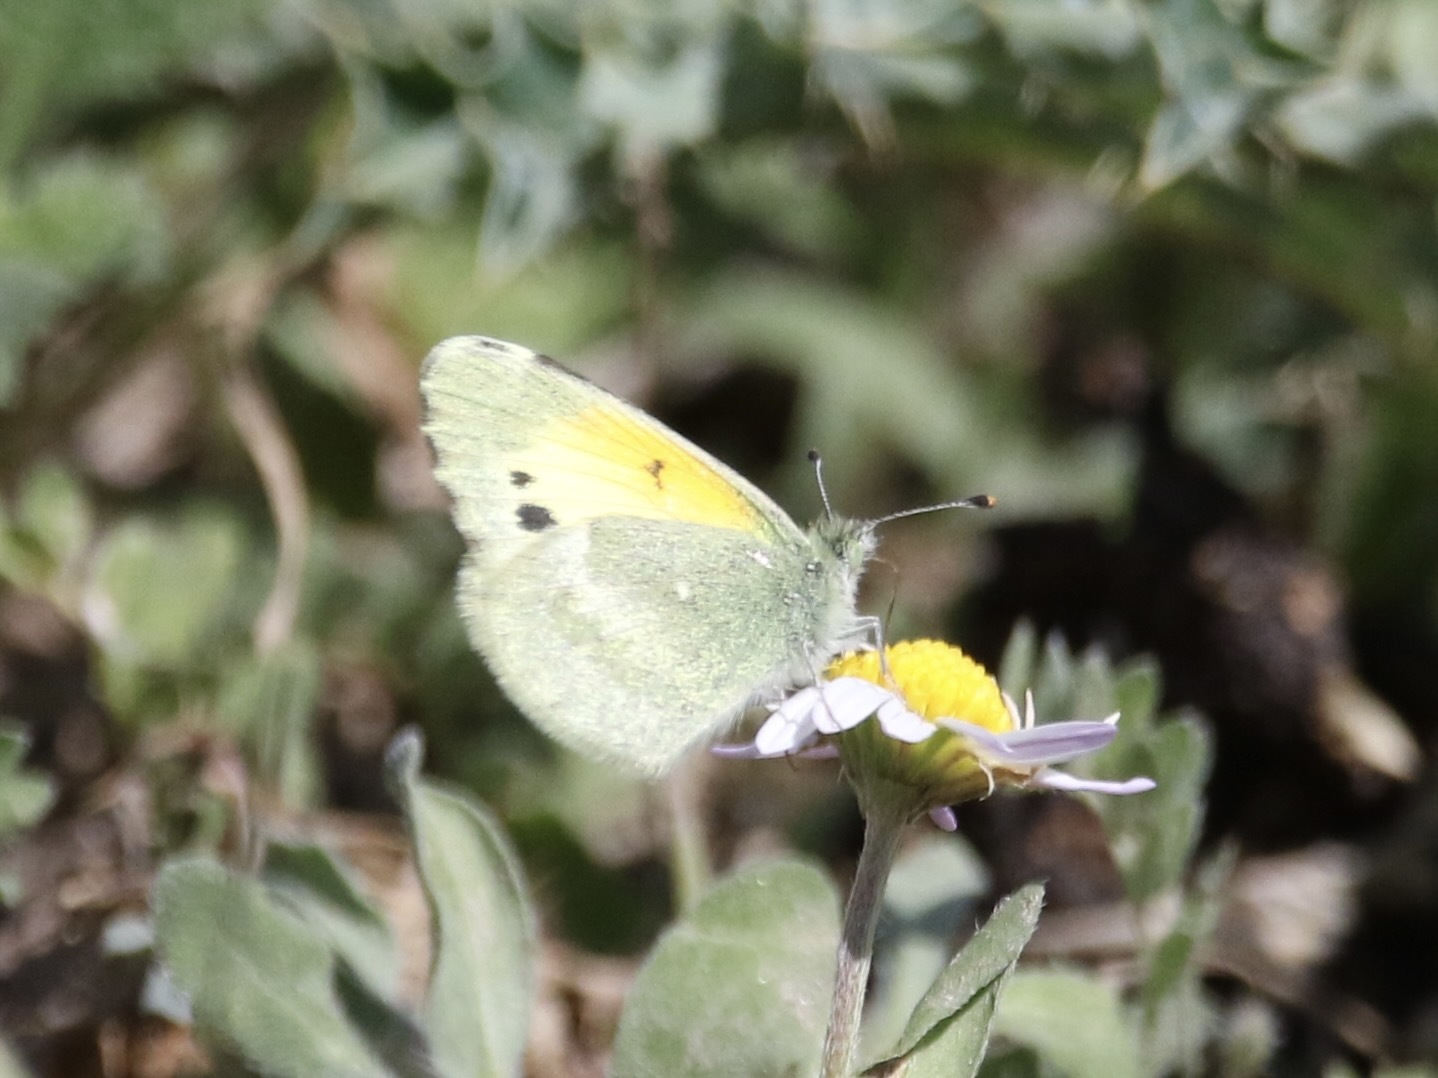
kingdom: Animalia
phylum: Arthropoda
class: Insecta
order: Lepidoptera
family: Pieridae
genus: Nathalis
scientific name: Nathalis iole
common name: Dainty sulphur
